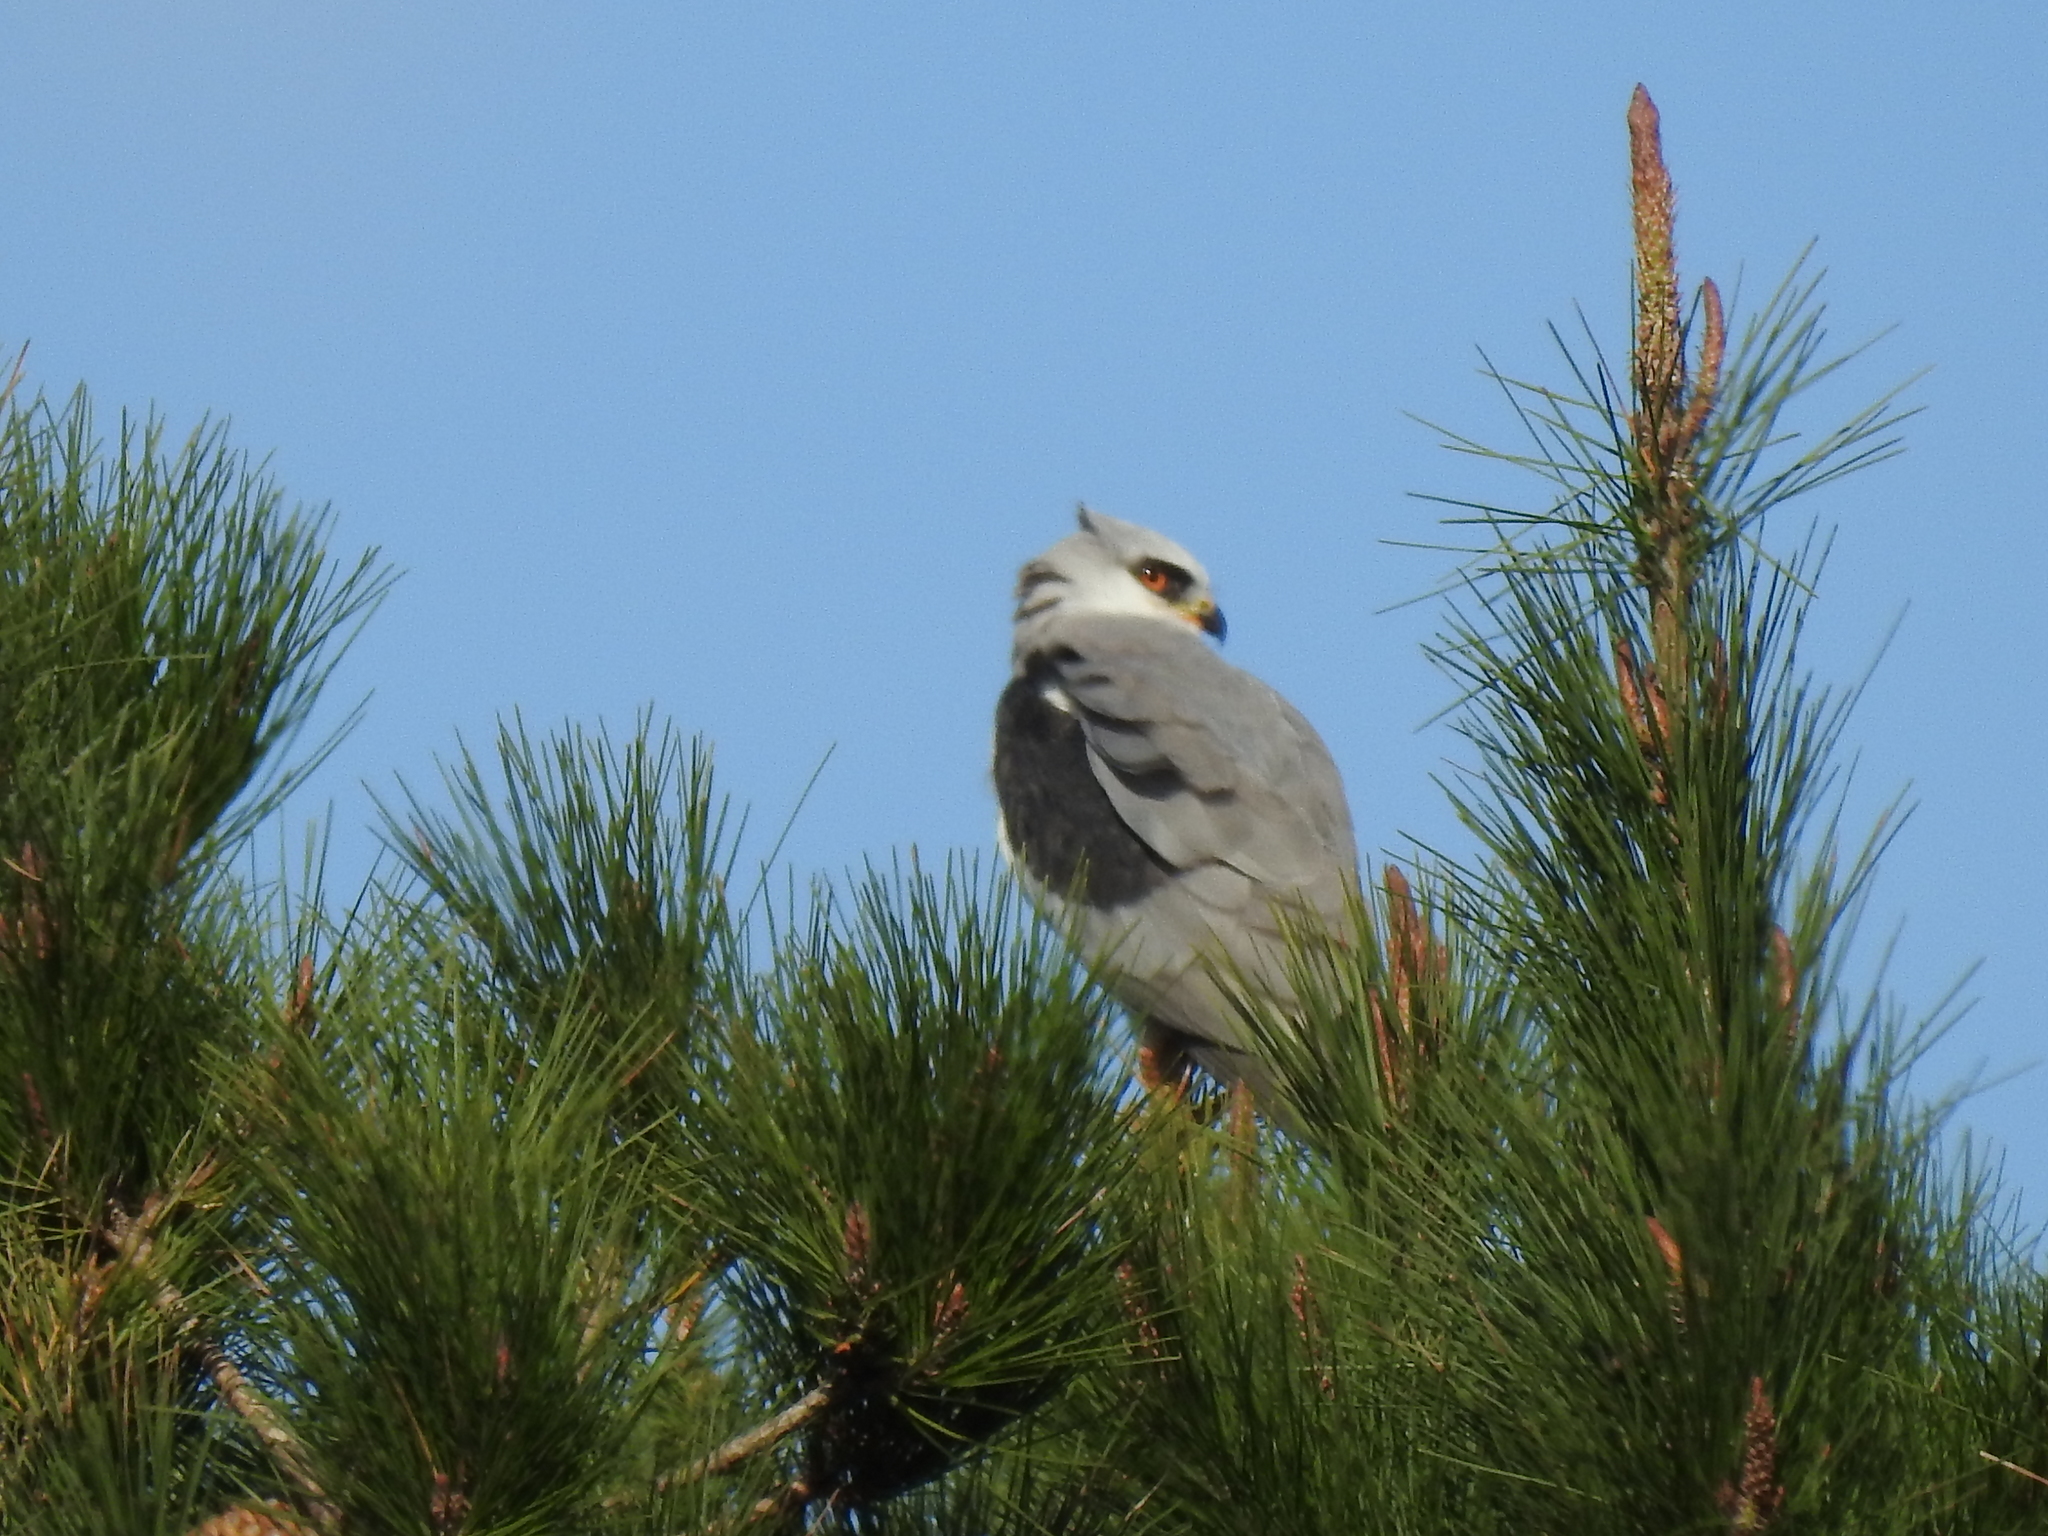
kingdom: Animalia
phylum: Chordata
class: Aves
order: Accipitriformes
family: Accipitridae
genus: Elanus
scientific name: Elanus leucurus
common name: White-tailed kite
